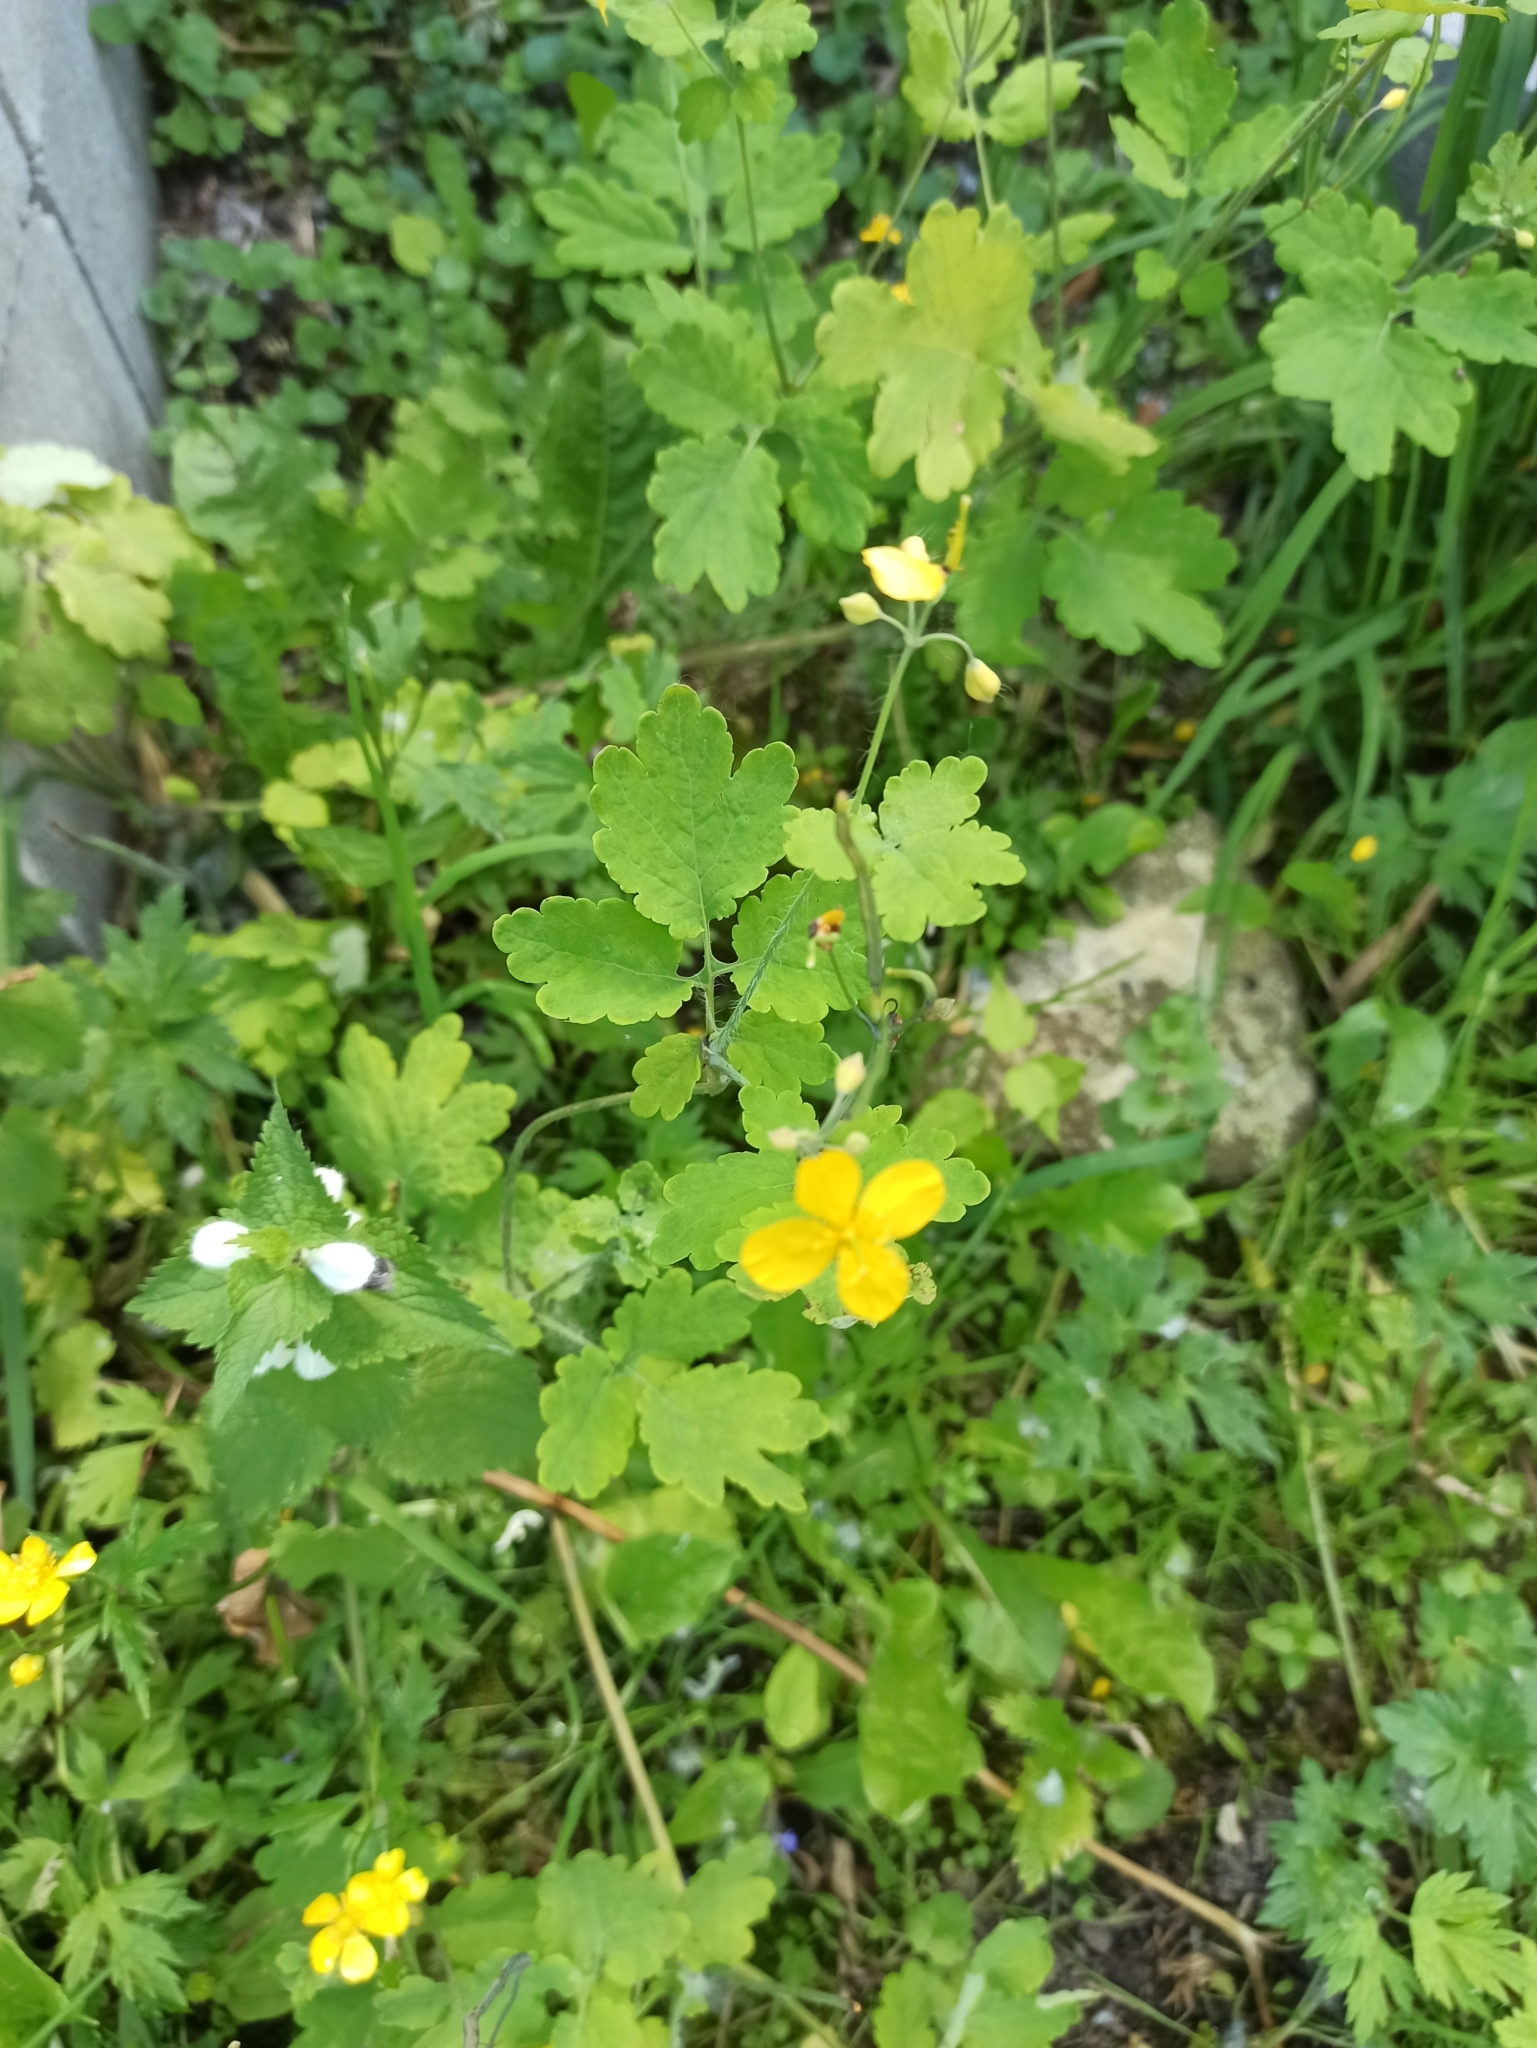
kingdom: Plantae
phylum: Tracheophyta
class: Magnoliopsida
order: Ranunculales
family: Papaveraceae
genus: Chelidonium
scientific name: Chelidonium majus
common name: Greater celandine
